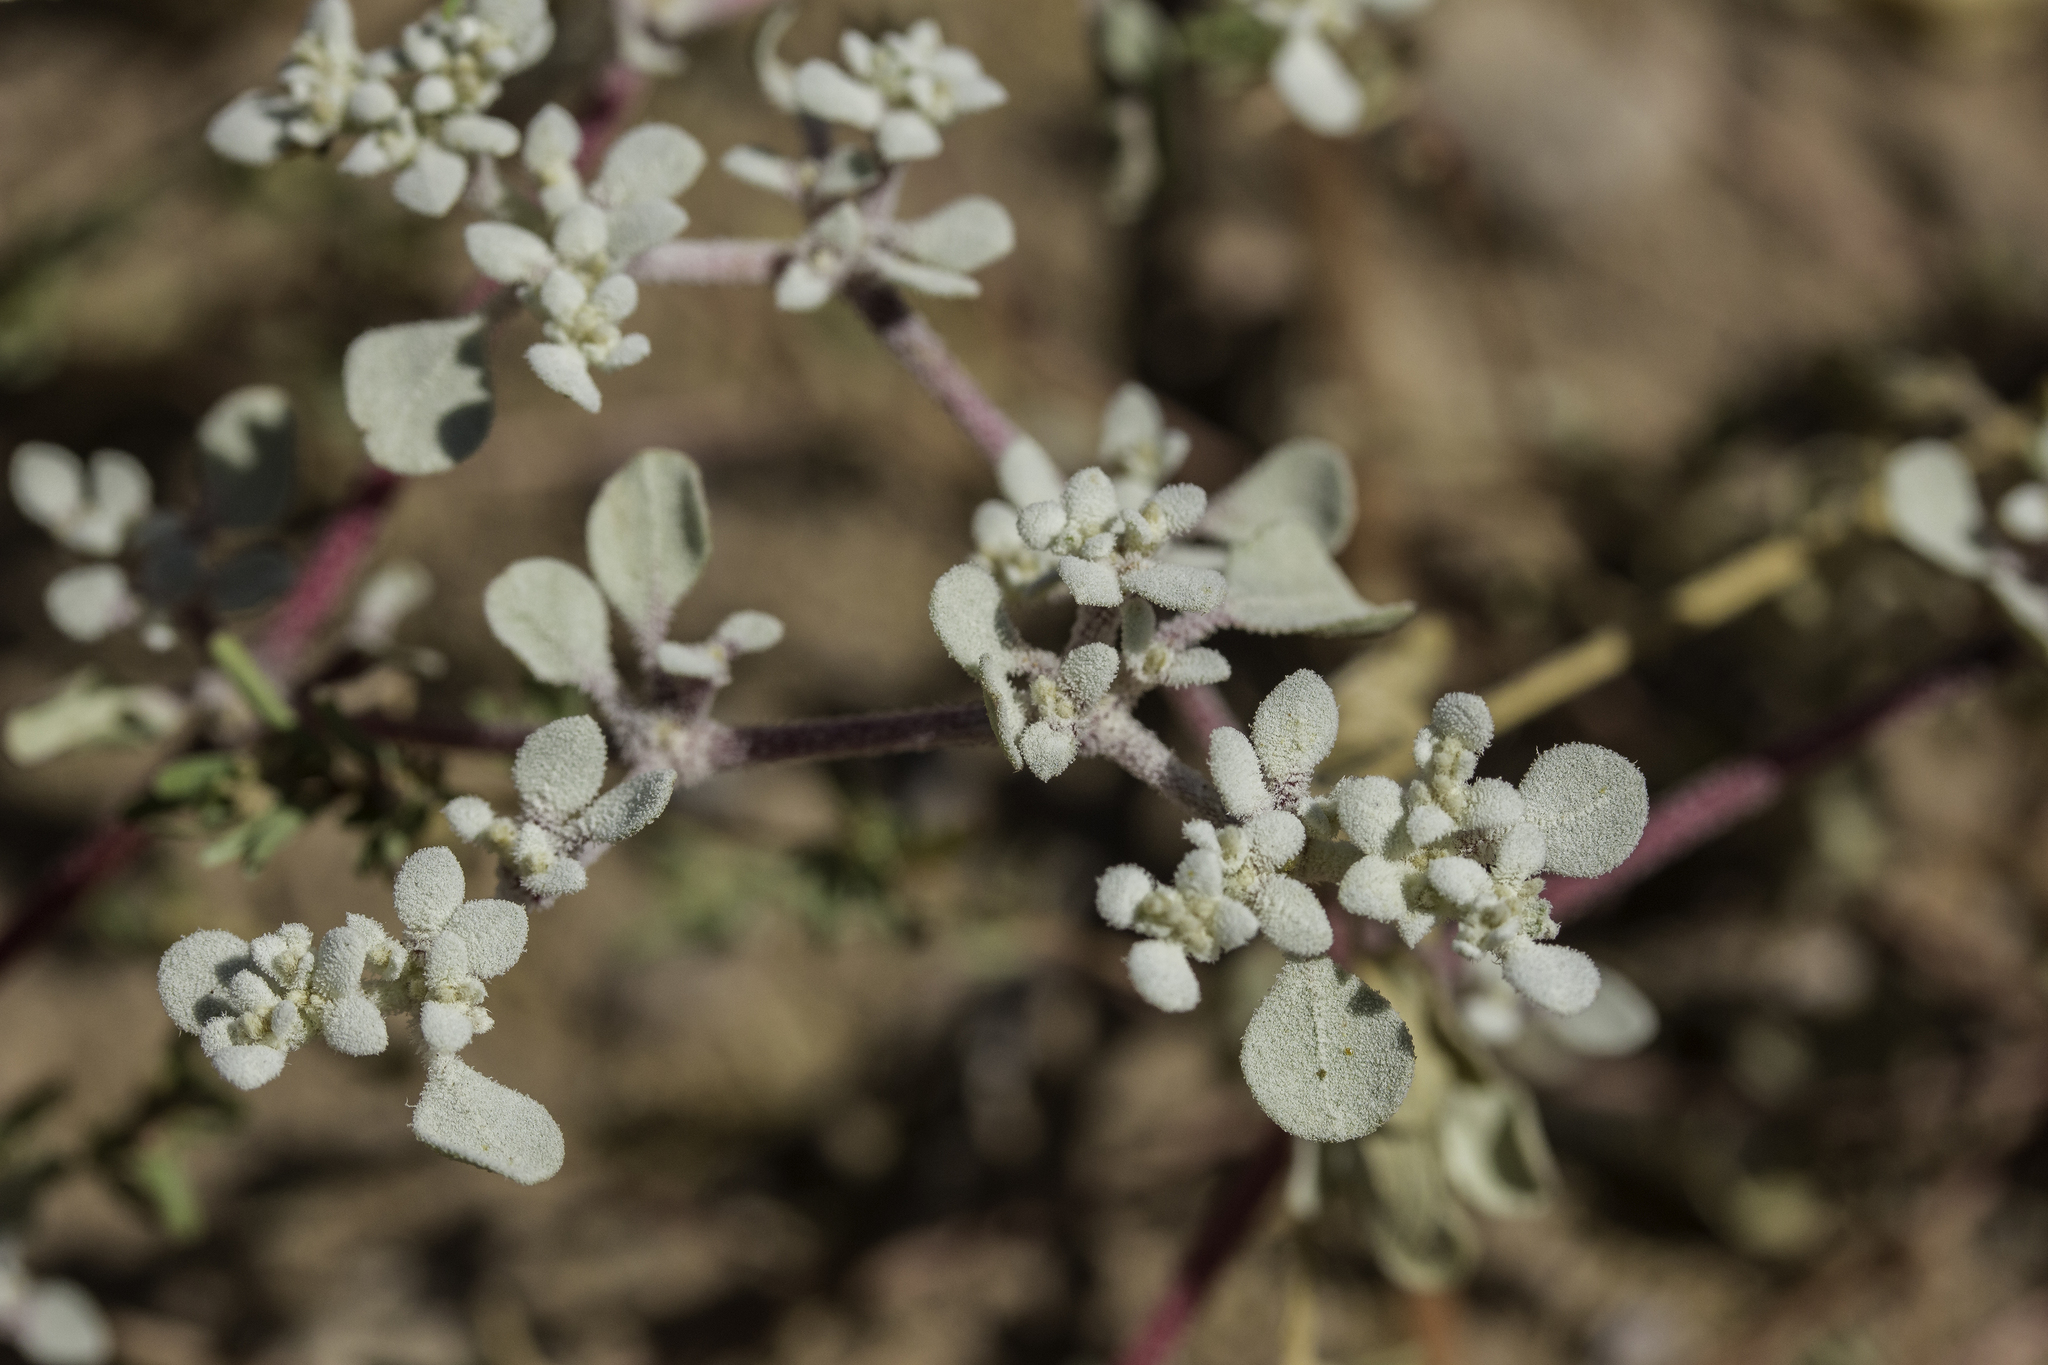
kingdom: Plantae
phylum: Tracheophyta
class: Magnoliopsida
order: Caryophyllales
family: Amaranthaceae
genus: Tidestromia
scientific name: Tidestromia lanuginosa
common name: Woolly tidestromia
